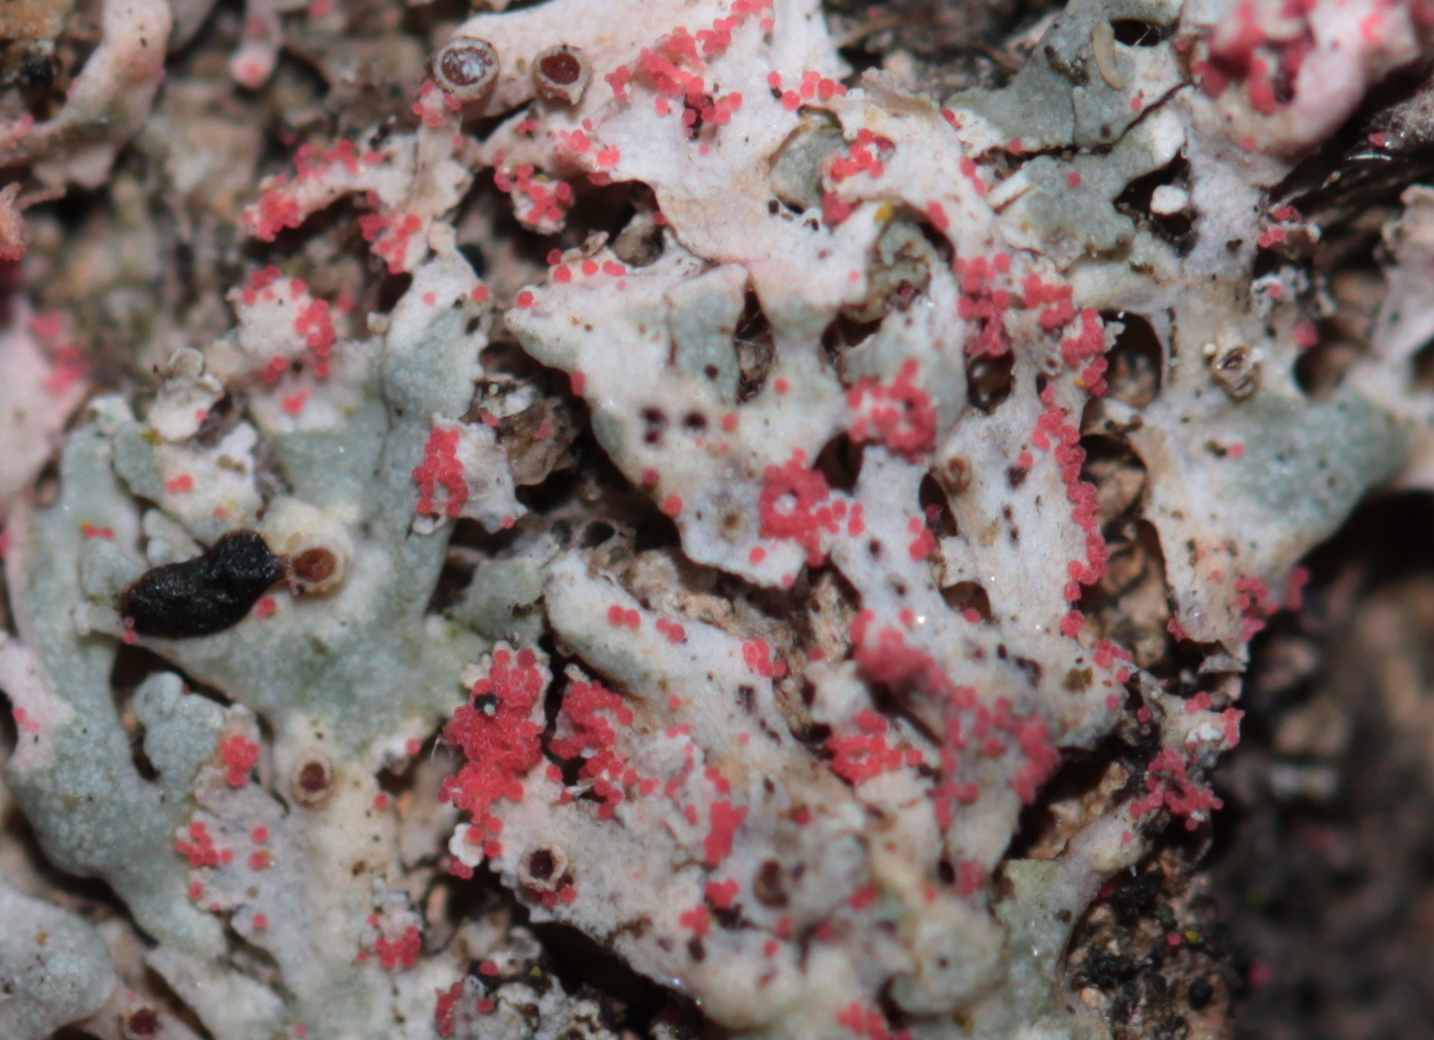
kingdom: Fungi
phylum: Ascomycota
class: Sordariomycetes
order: Hypocreales
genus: Illosporiopsis
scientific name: Illosporiopsis christiansenii
